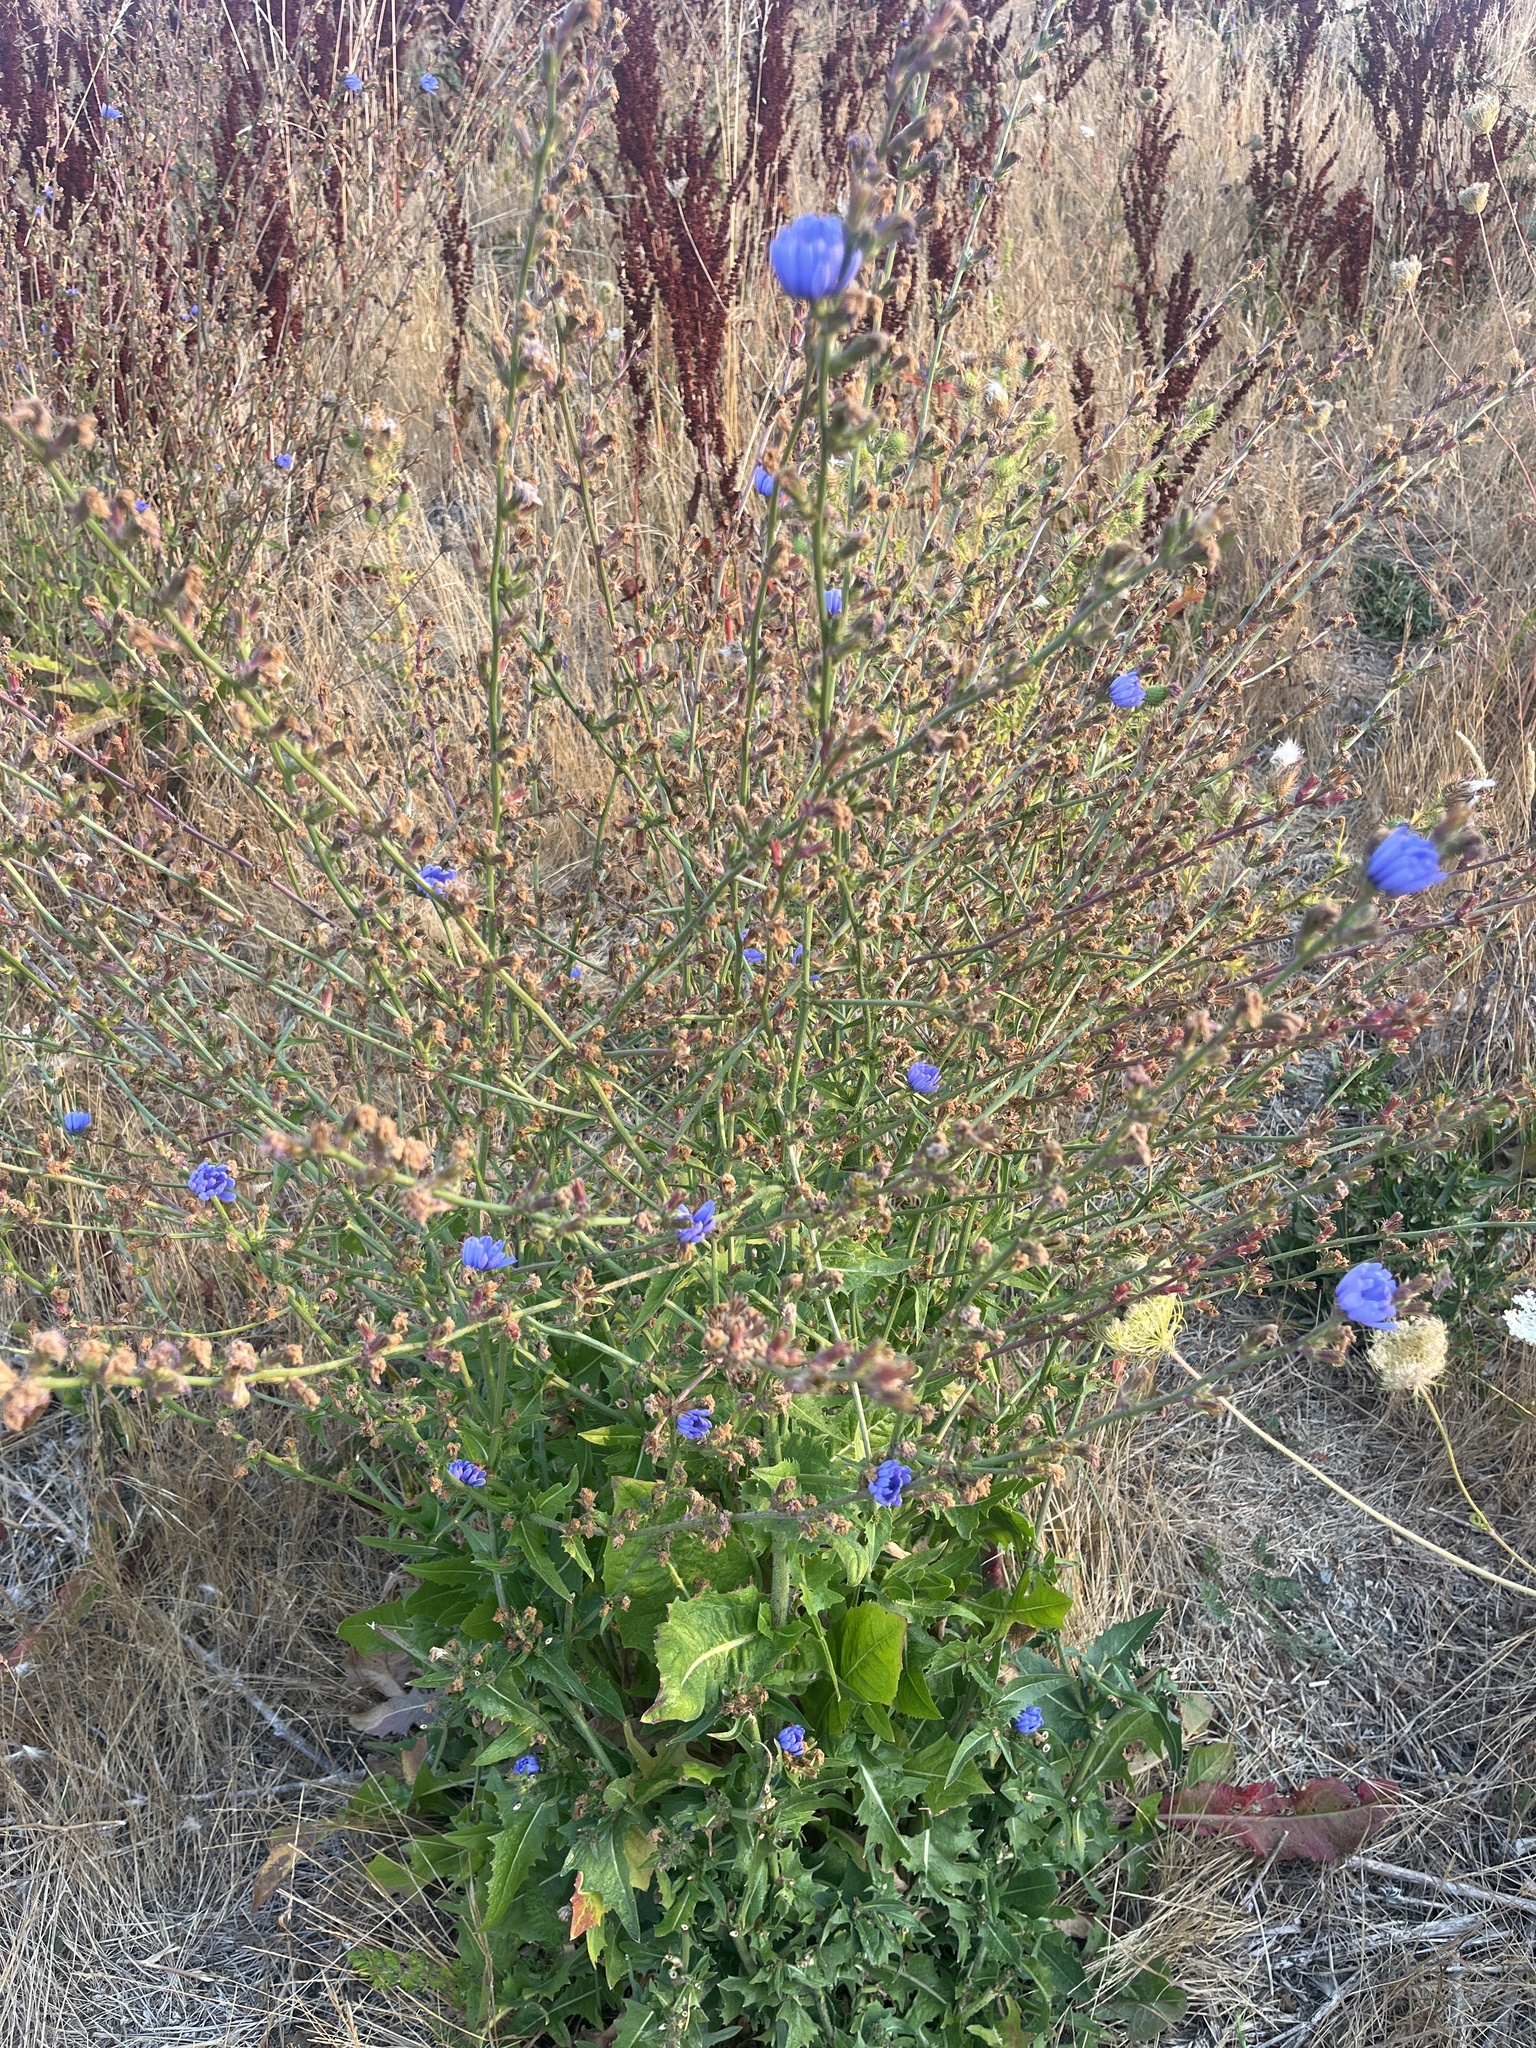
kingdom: Plantae
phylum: Tracheophyta
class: Magnoliopsida
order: Asterales
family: Asteraceae
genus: Cichorium
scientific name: Cichorium intybus
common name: Chicory
